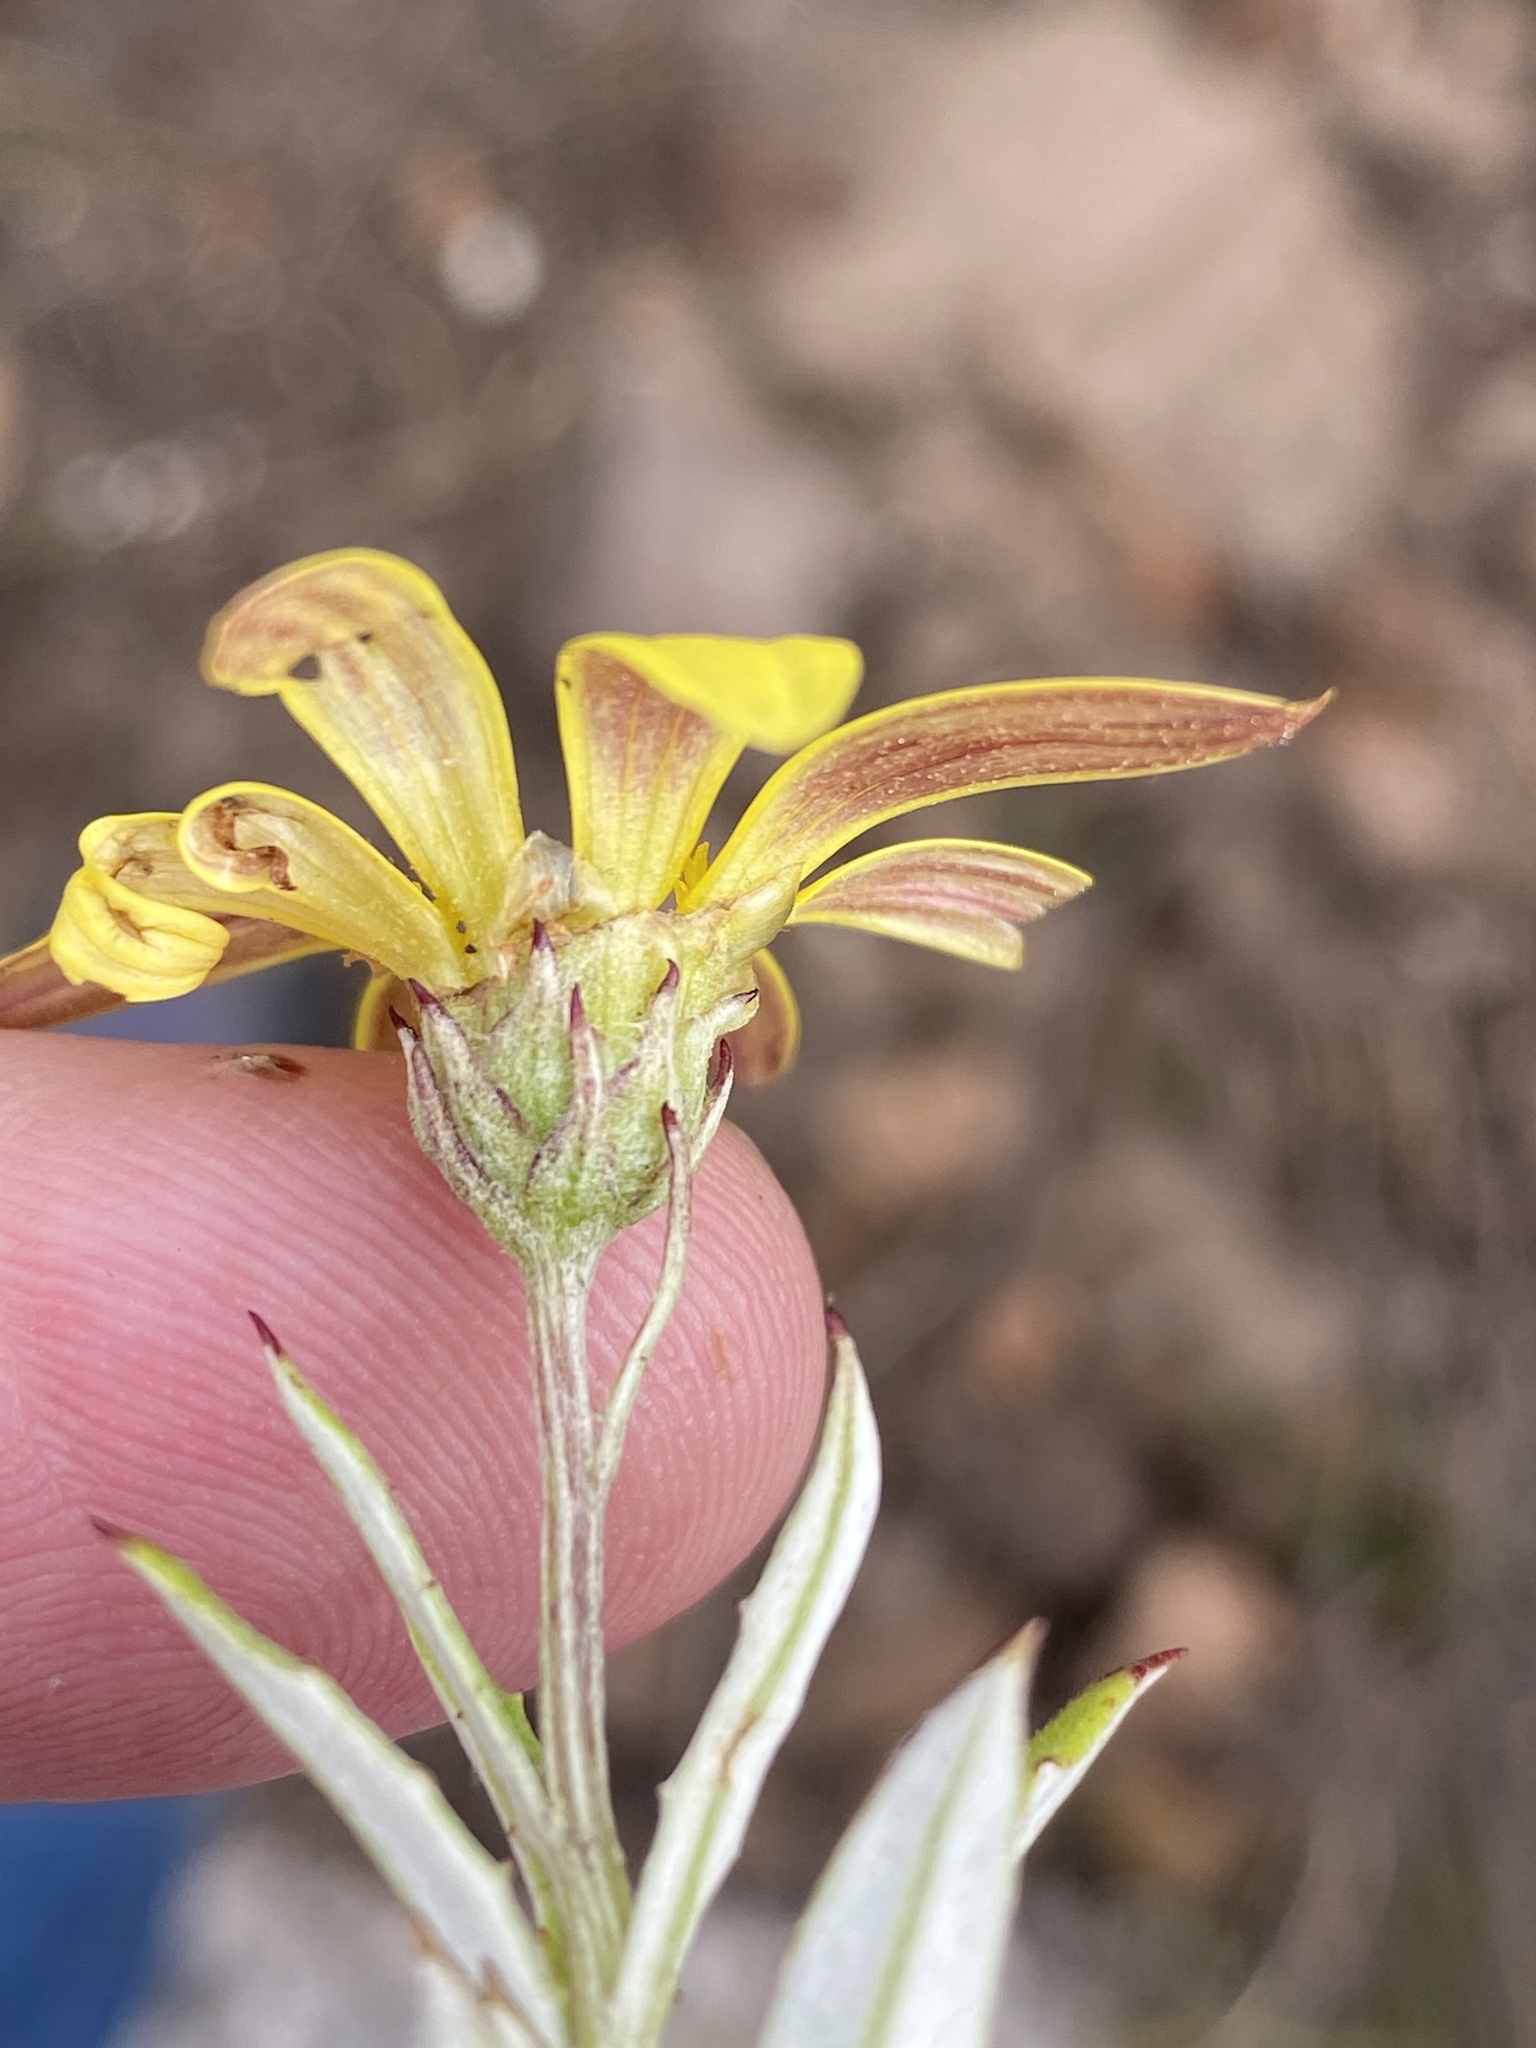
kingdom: Plantae
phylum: Tracheophyta
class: Magnoliopsida
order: Asterales
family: Asteraceae
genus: Arctotis
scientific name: Arctotis scabra
